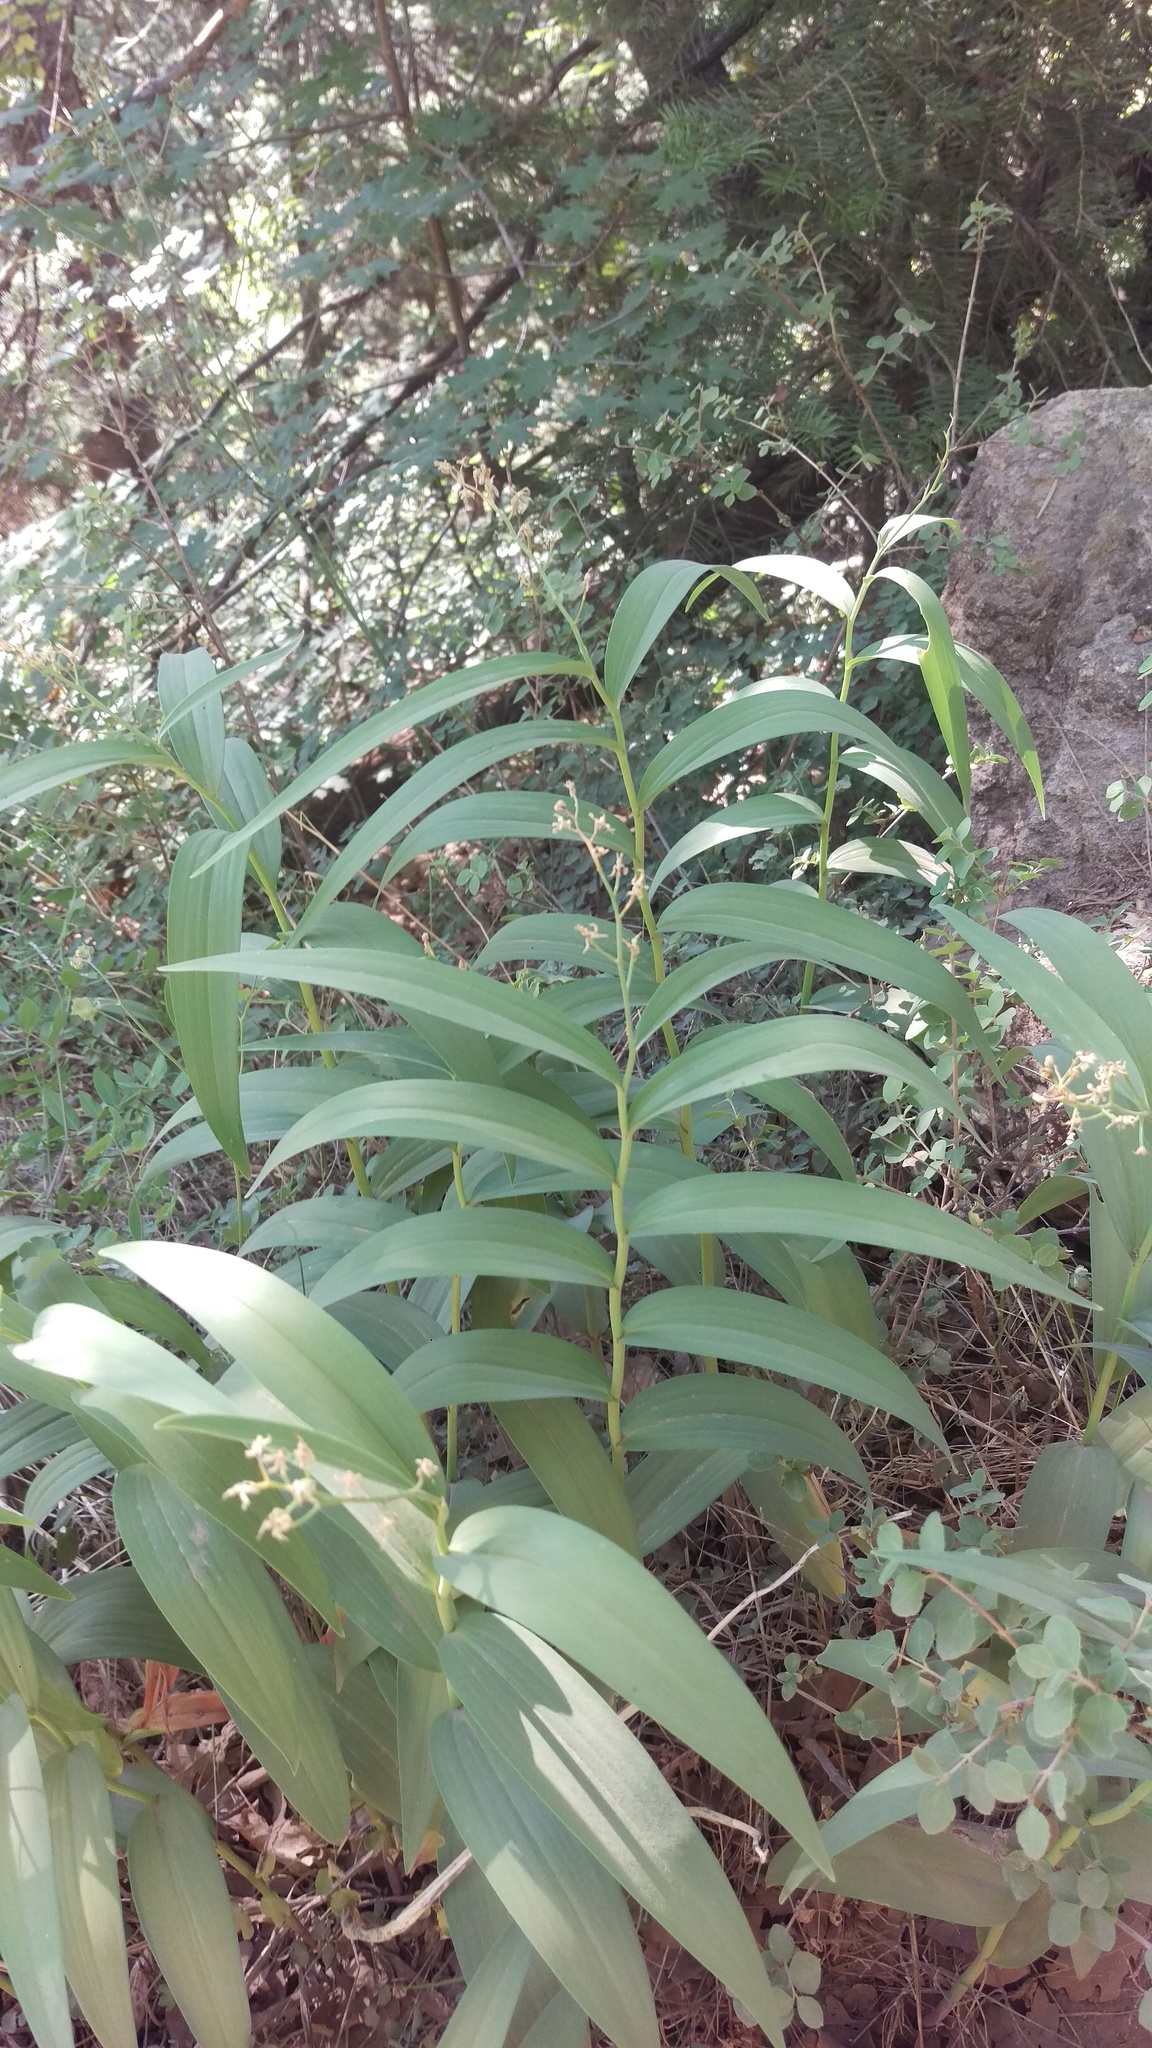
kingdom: Plantae
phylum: Tracheophyta
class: Liliopsida
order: Asparagales
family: Asparagaceae
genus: Maianthemum
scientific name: Maianthemum stellatum
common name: Little false solomon's seal
